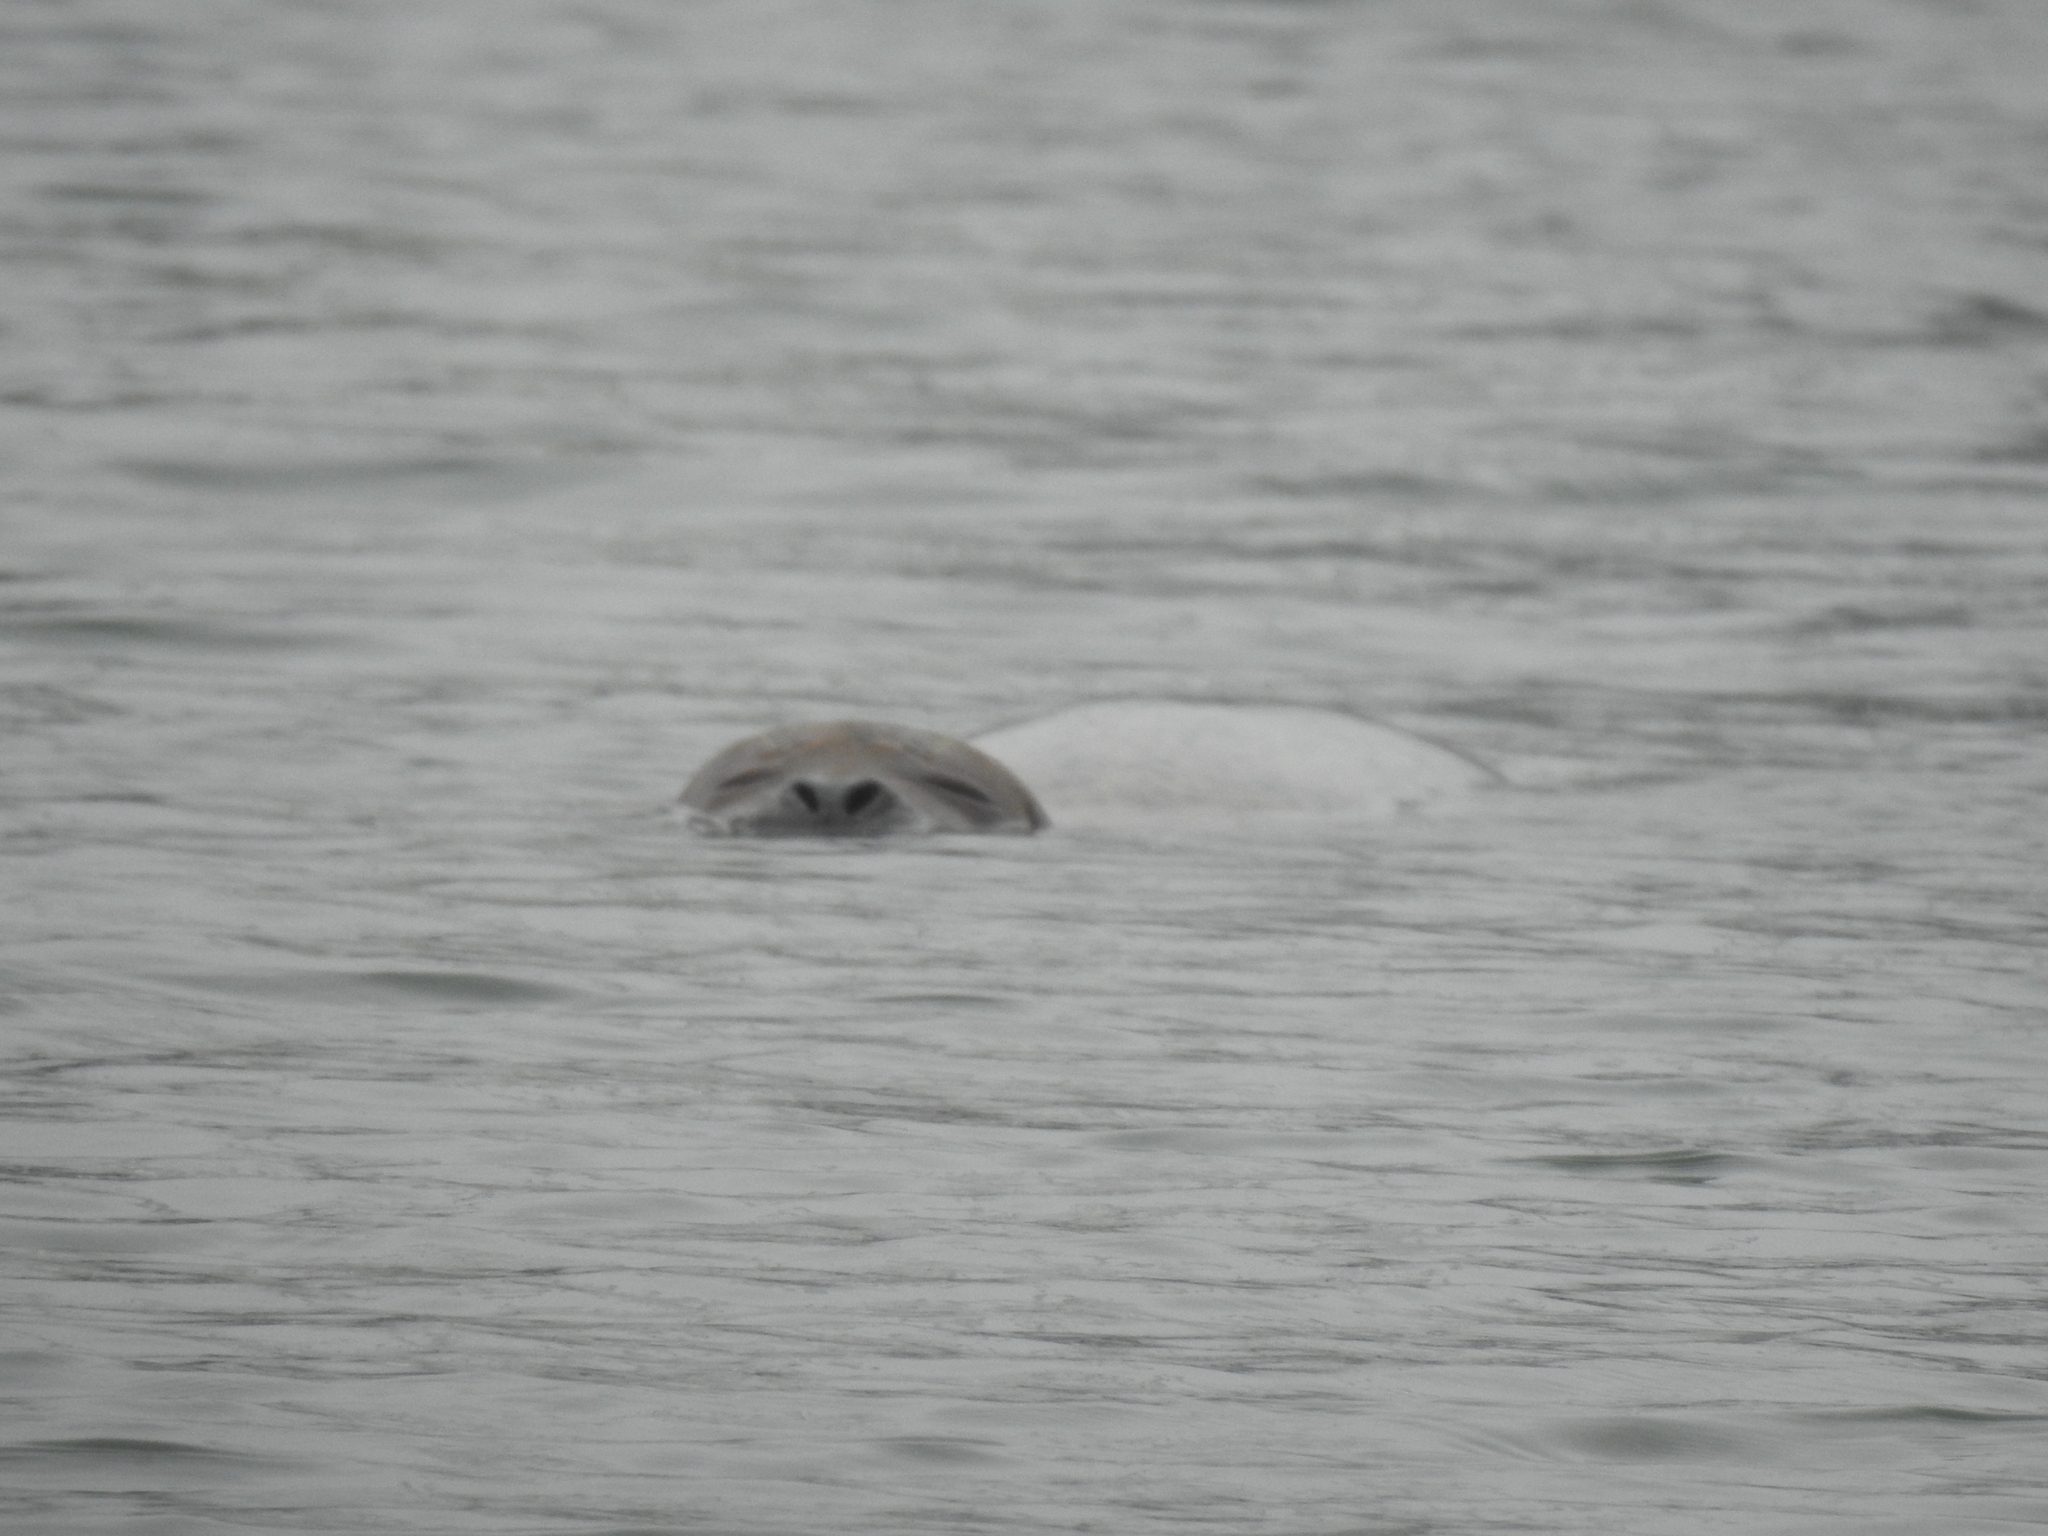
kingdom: Animalia
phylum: Chordata
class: Mammalia
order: Carnivora
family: Phocidae
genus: Phoca
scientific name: Phoca vitulina
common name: Harbor seal
